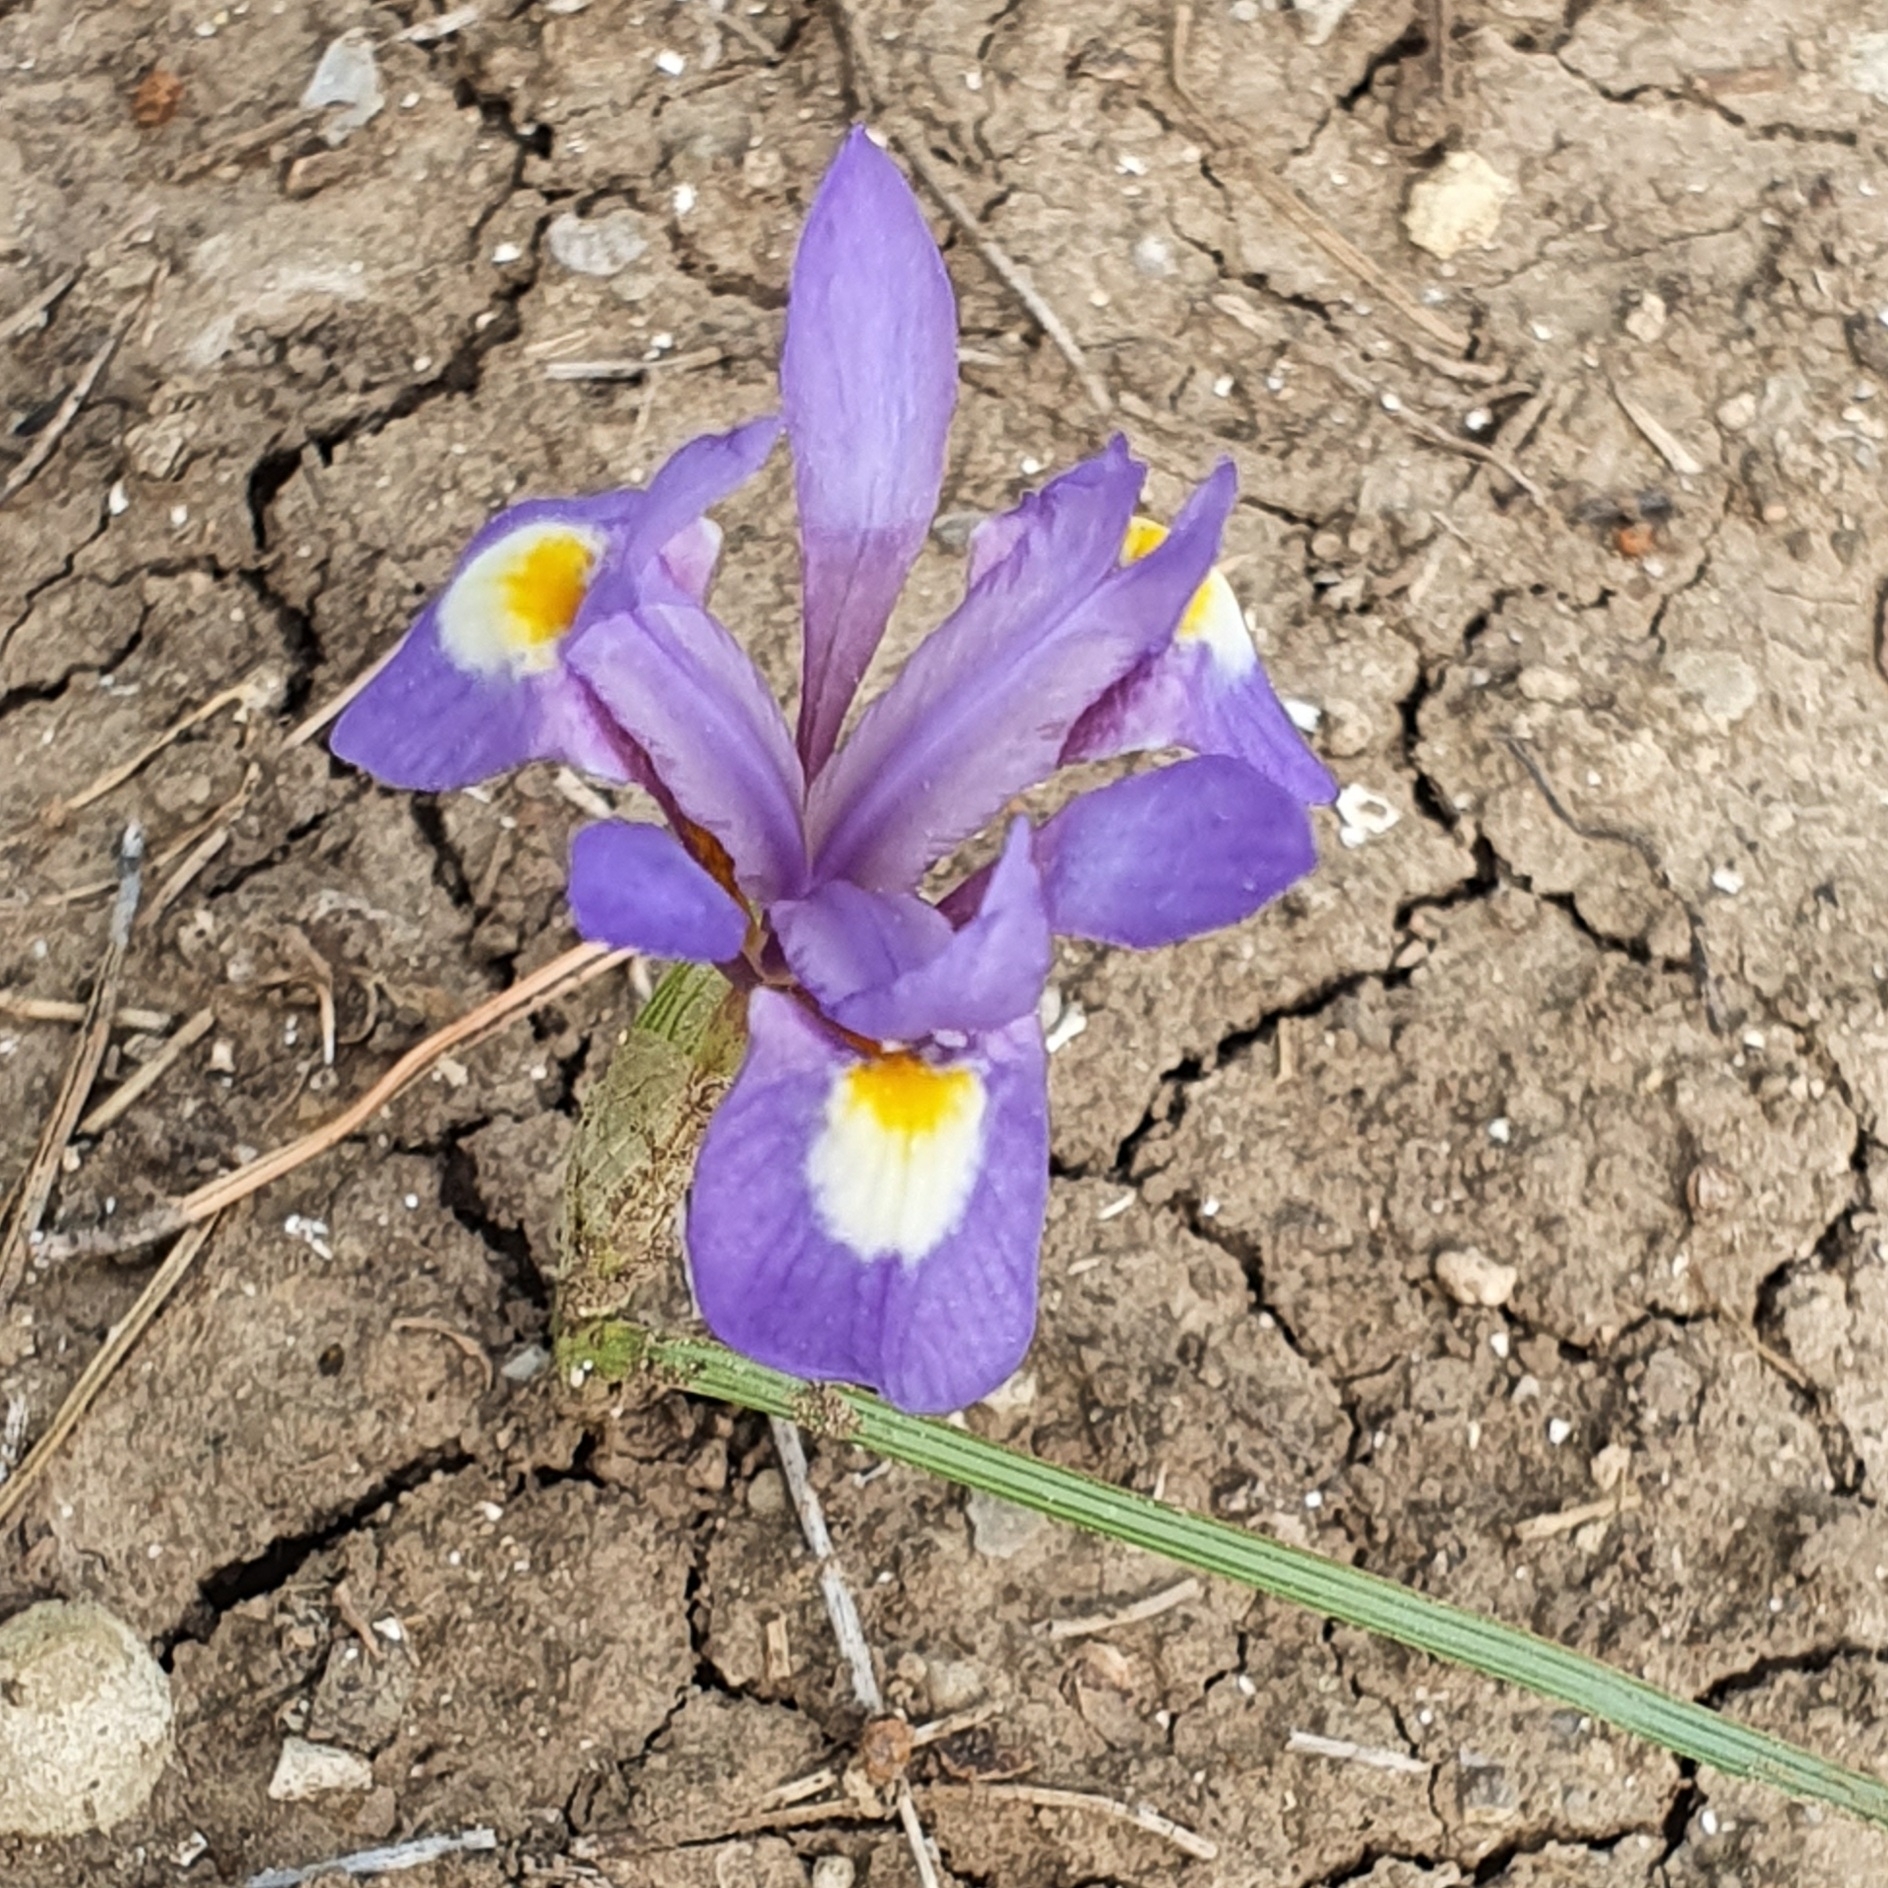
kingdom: Plantae
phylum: Tracheophyta
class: Liliopsida
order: Asparagales
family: Iridaceae
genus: Moraea
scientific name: Moraea sisyrinchium
